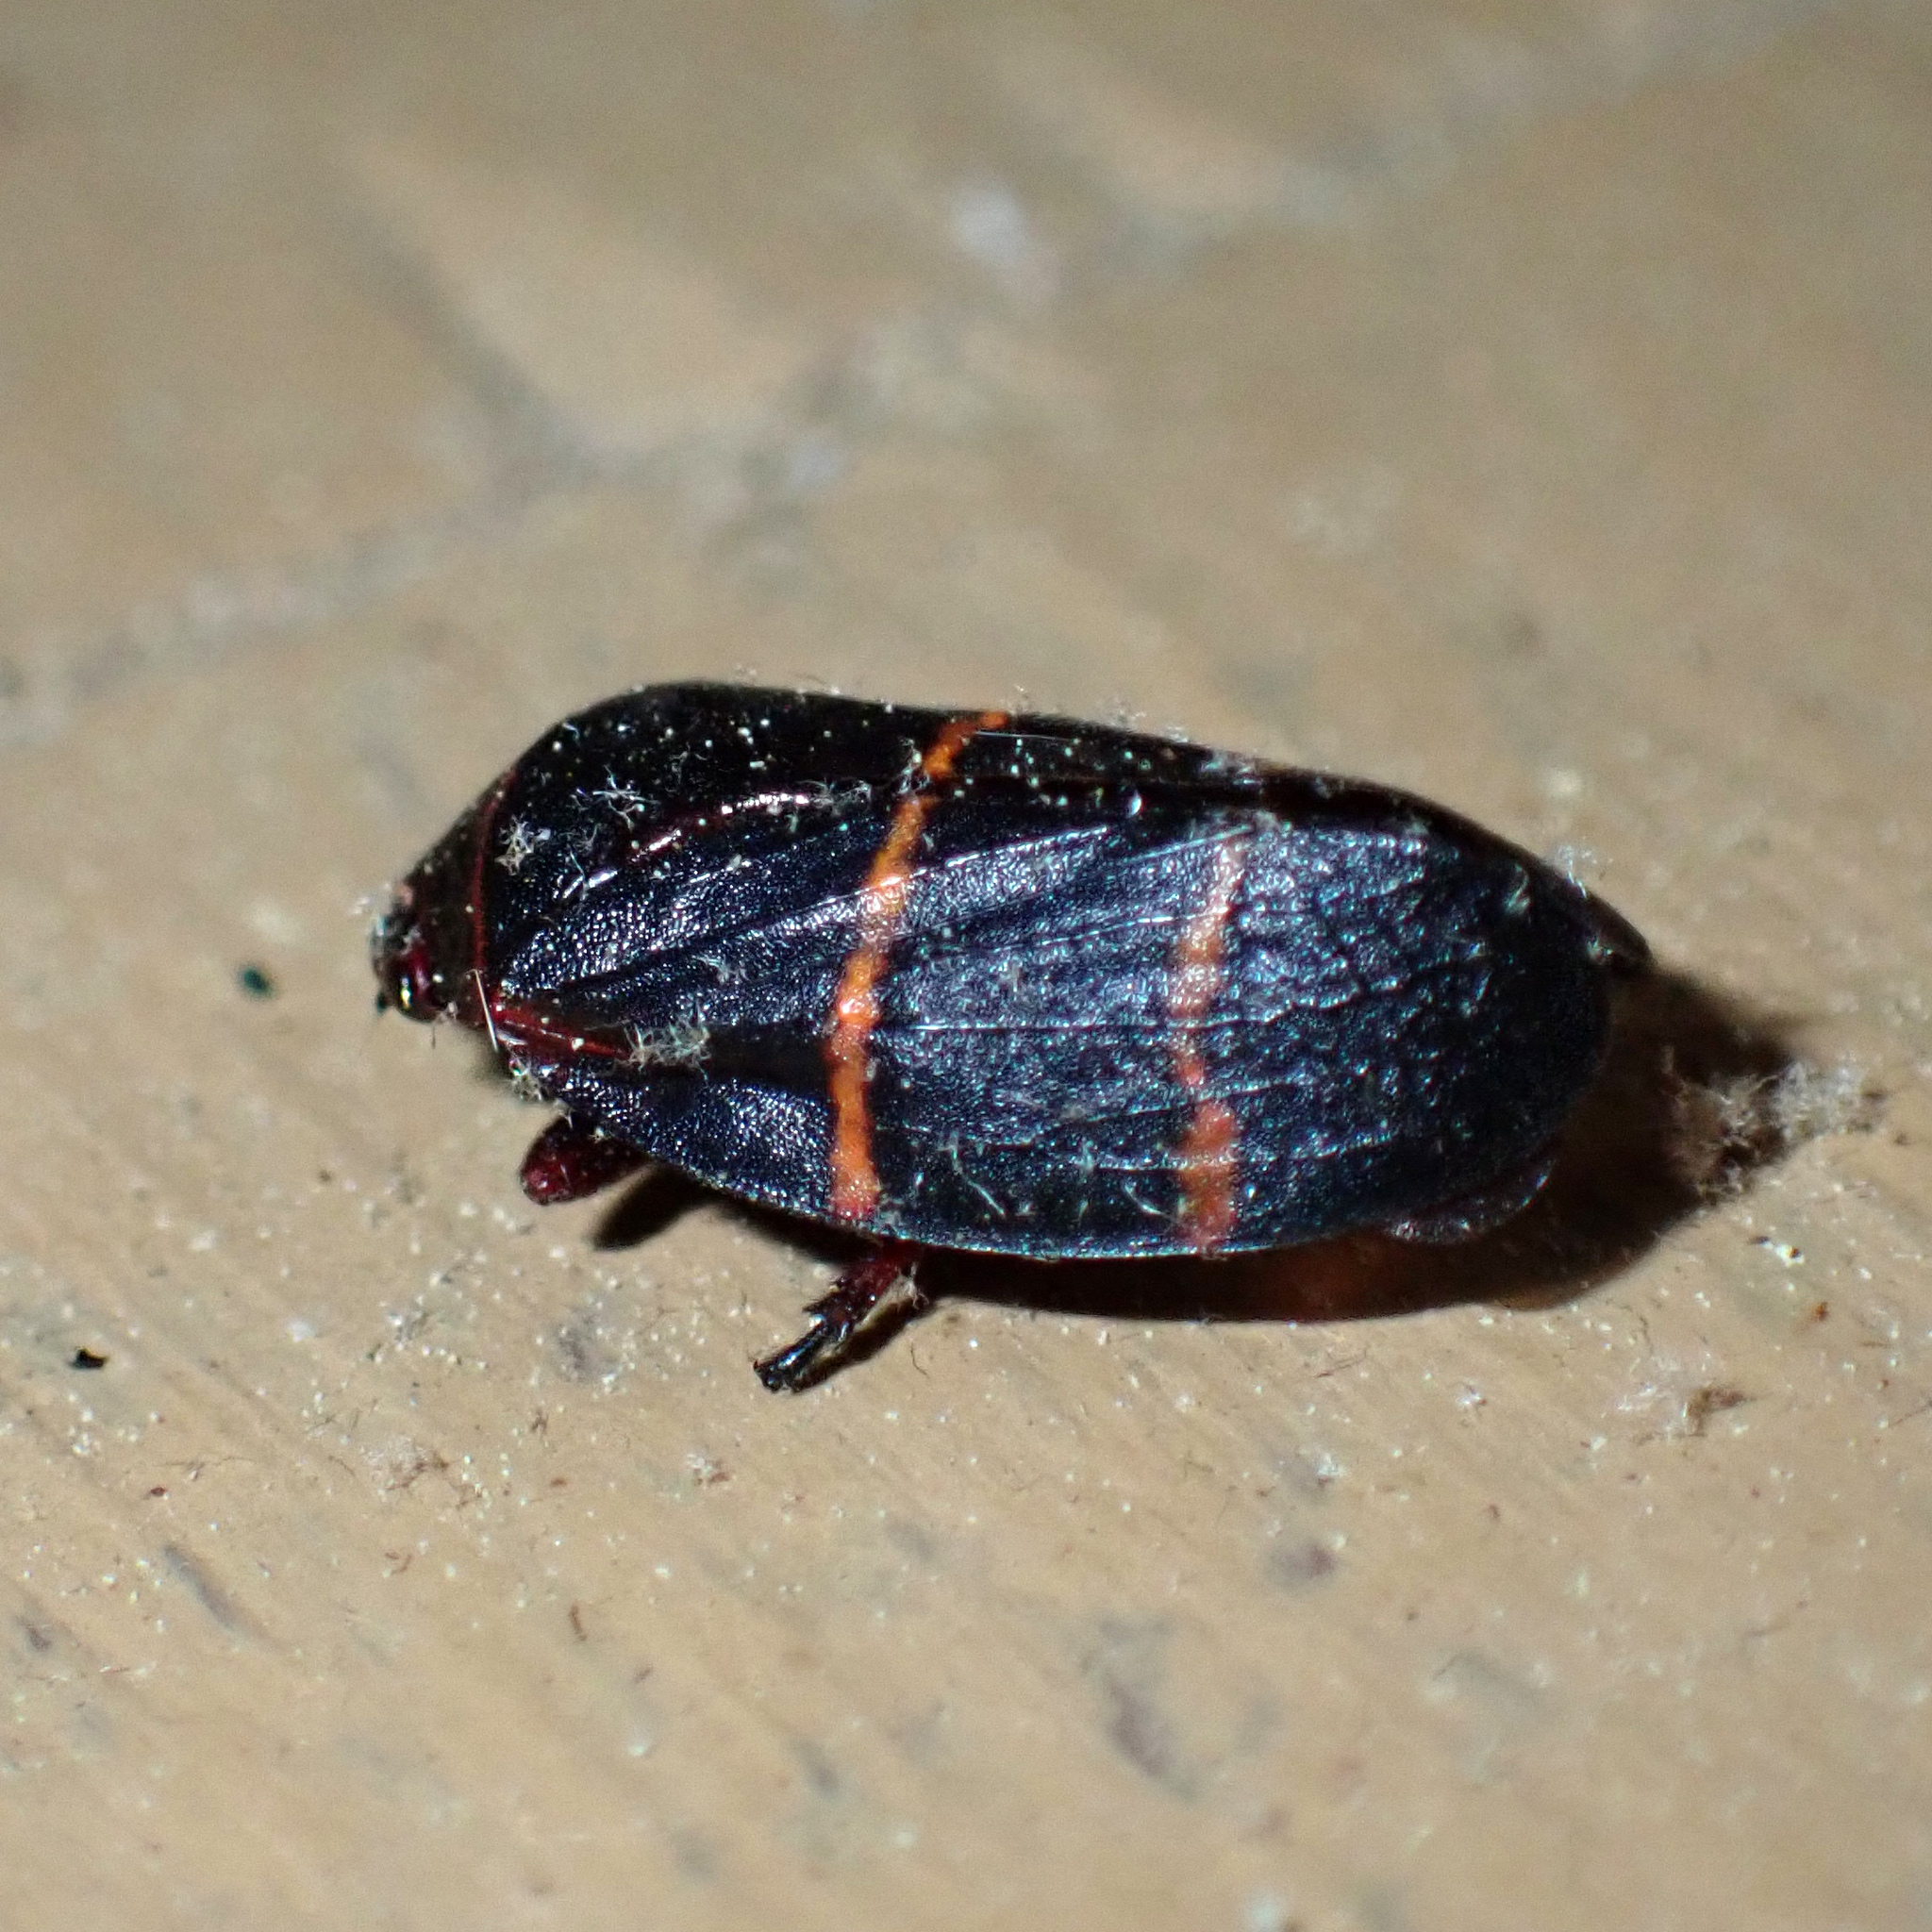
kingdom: Animalia
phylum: Arthropoda
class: Insecta
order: Hemiptera
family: Cercopidae
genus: Prosapia
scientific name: Prosapia bicincta
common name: Twolined spittlebug
